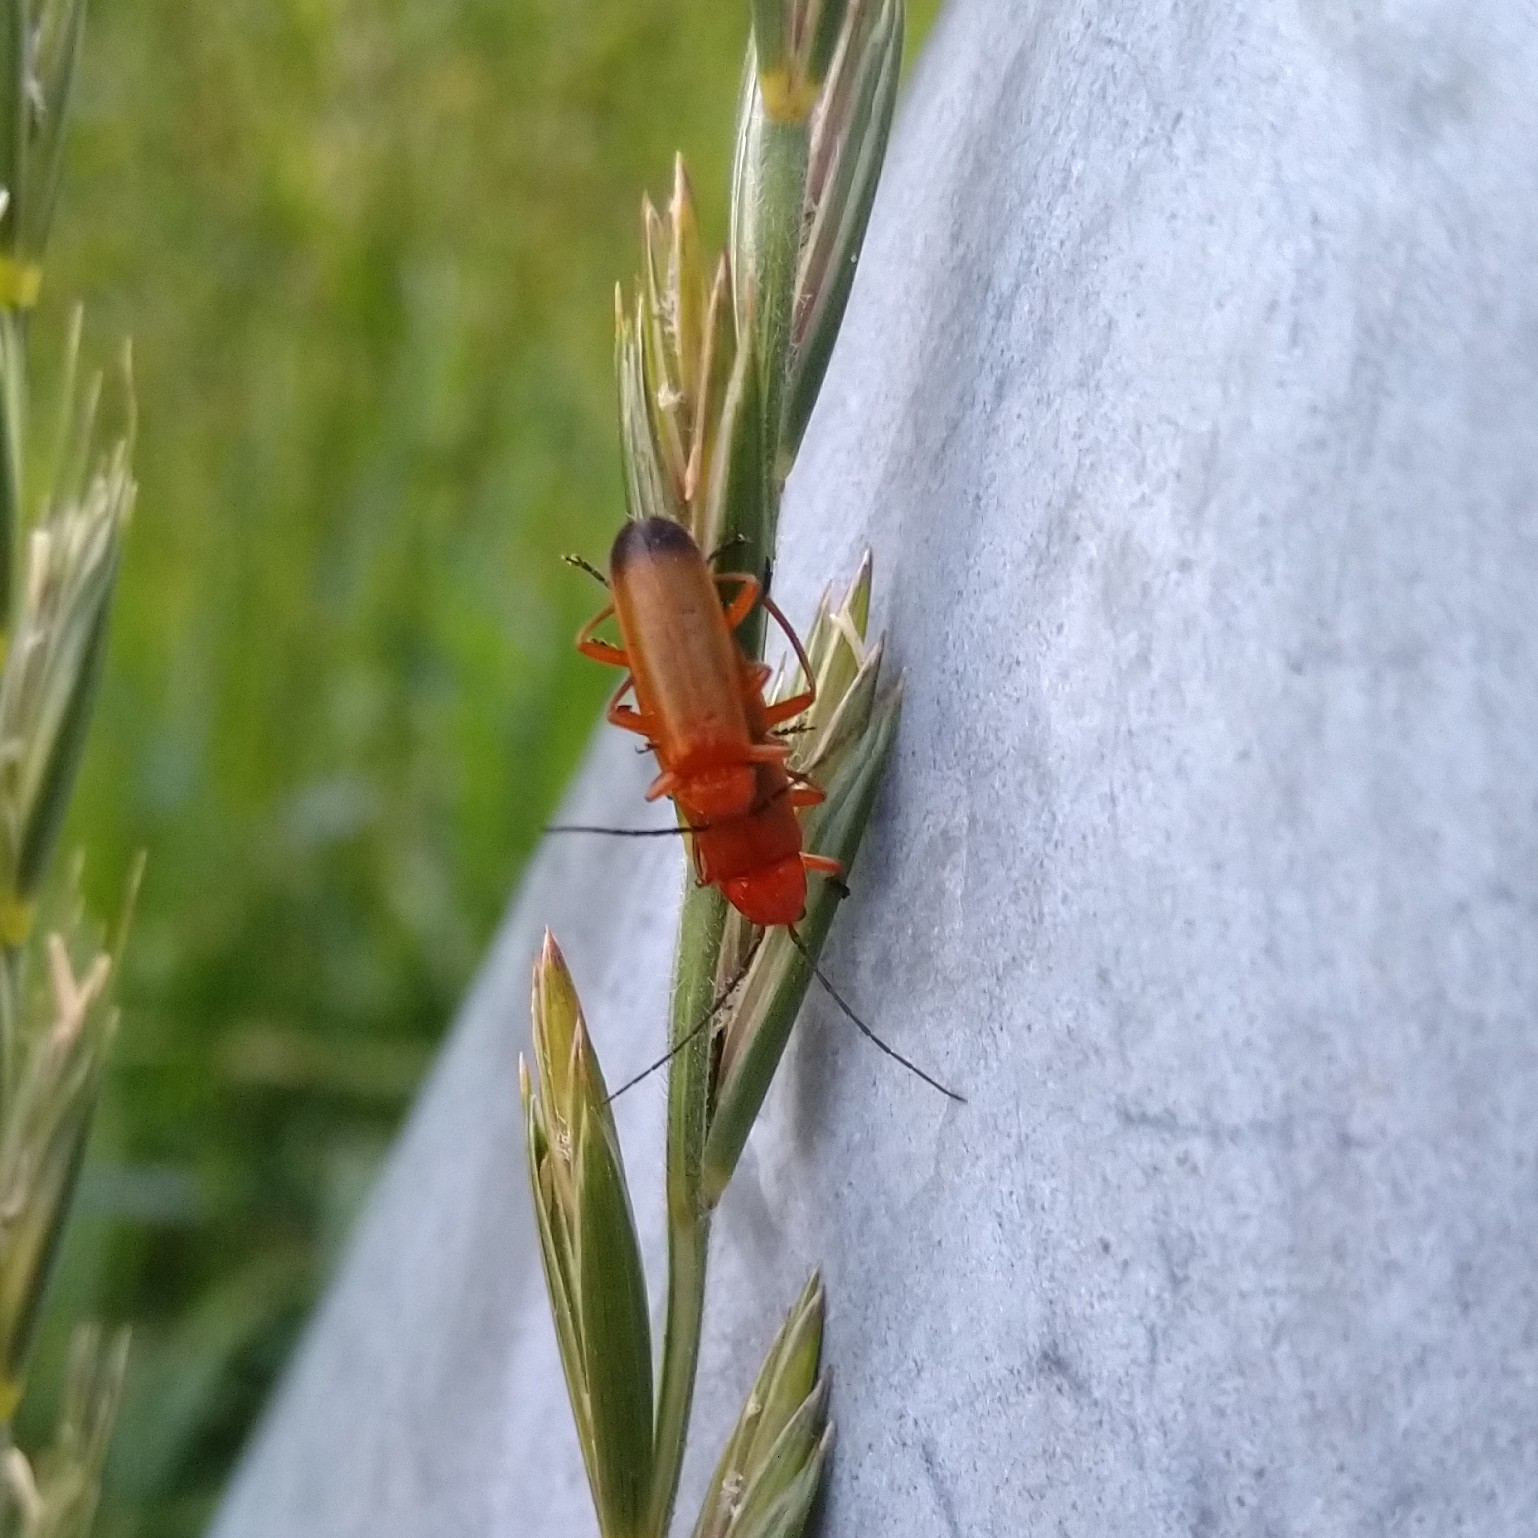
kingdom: Animalia
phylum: Arthropoda
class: Insecta
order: Coleoptera
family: Cantharidae
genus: Rhagonycha
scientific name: Rhagonycha fulva
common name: Common red soldier beetle
